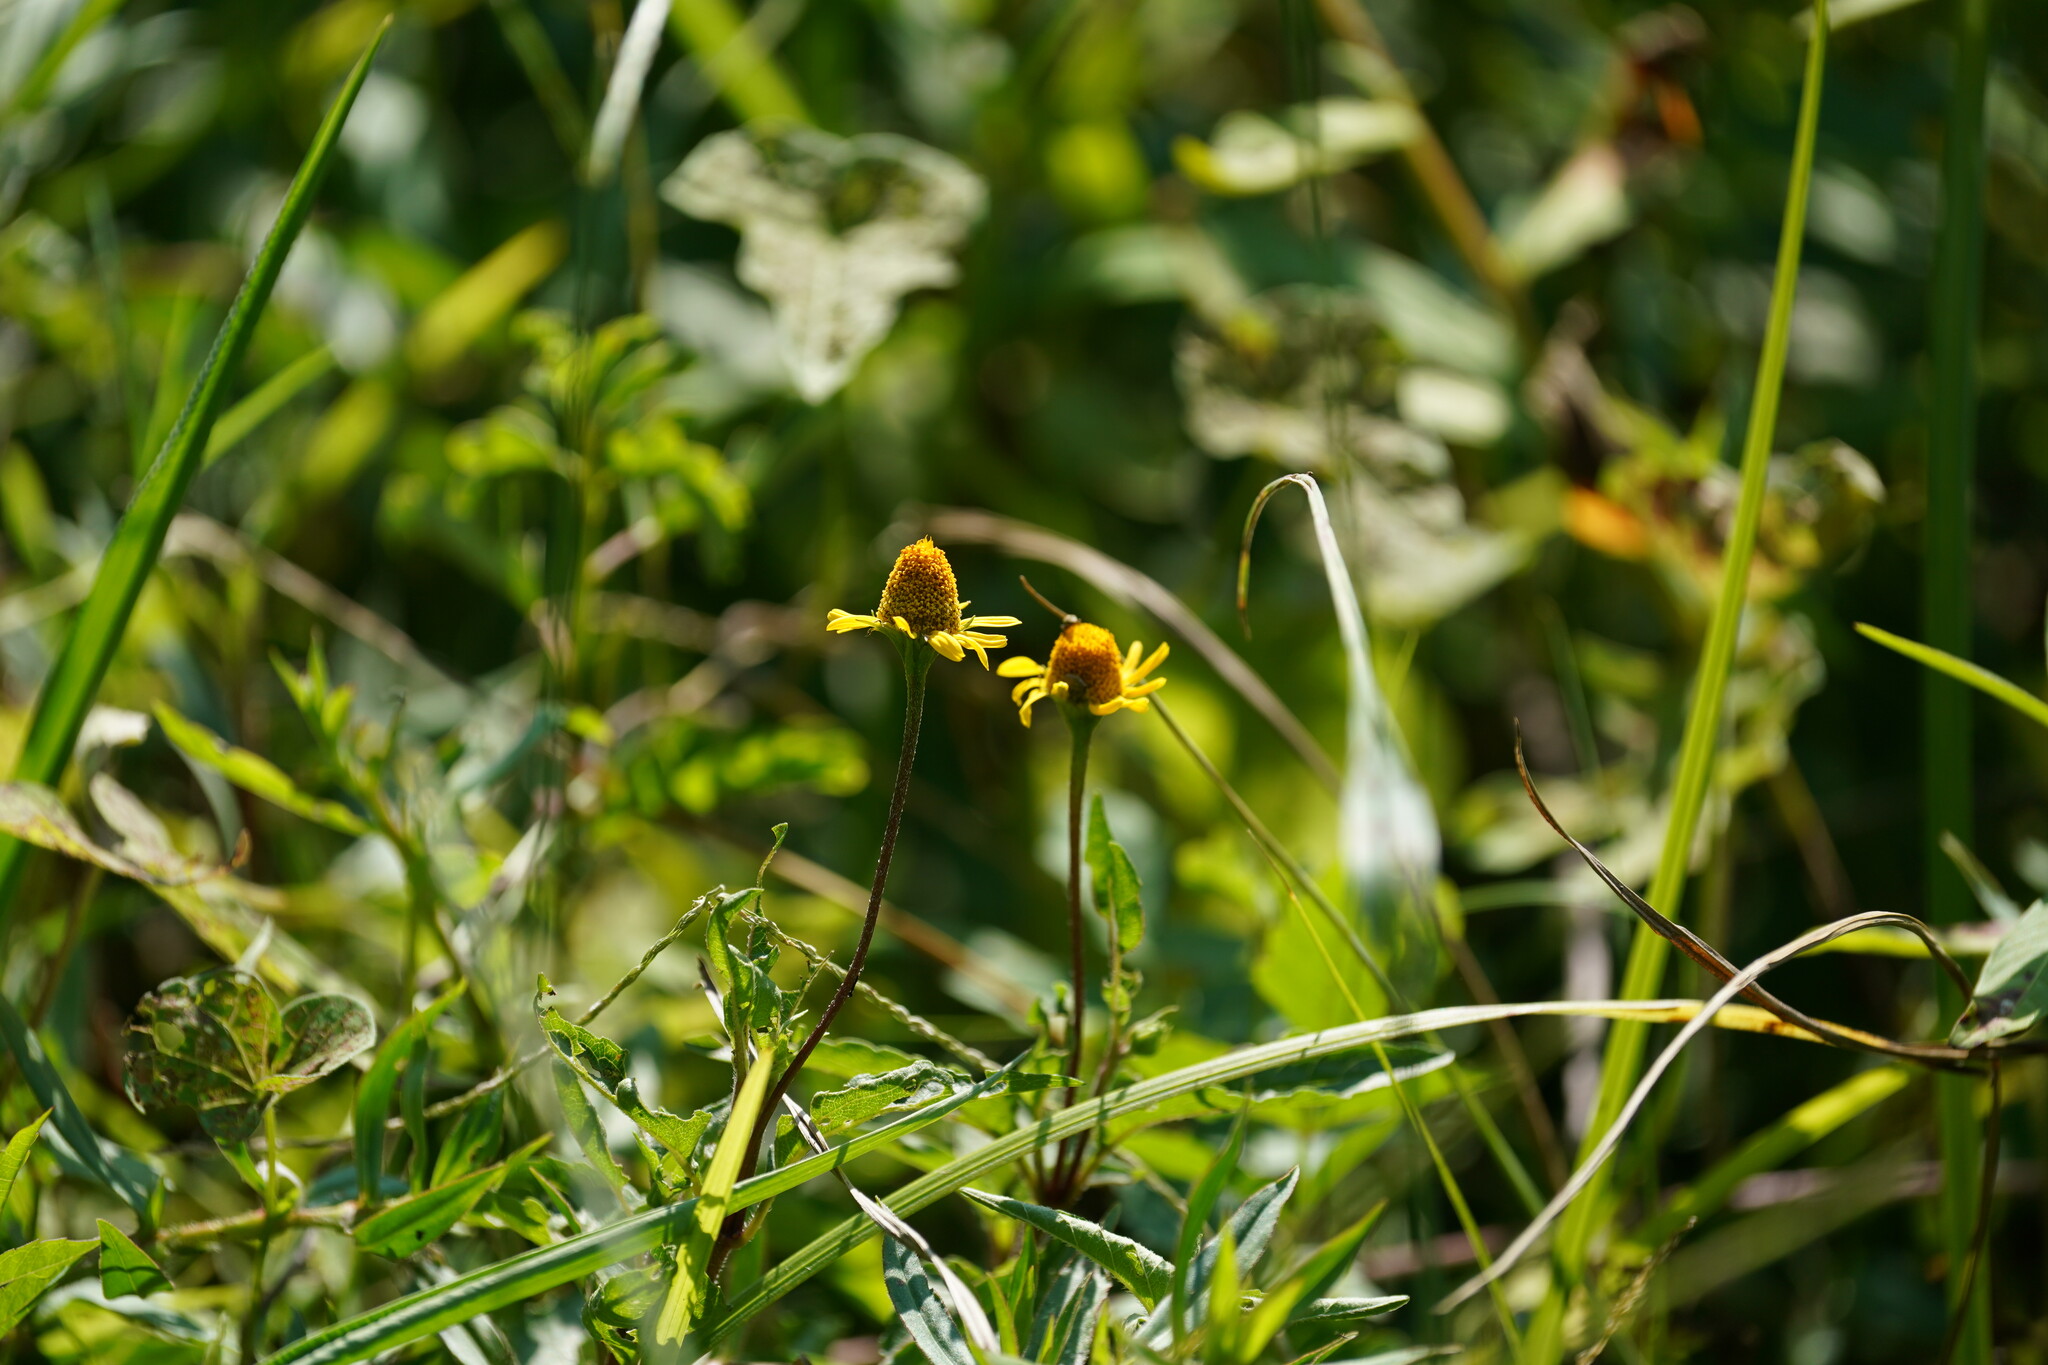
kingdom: Plantae
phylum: Tracheophyta
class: Magnoliopsida
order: Asterales
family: Asteraceae
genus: Acmella
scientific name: Acmella repens
